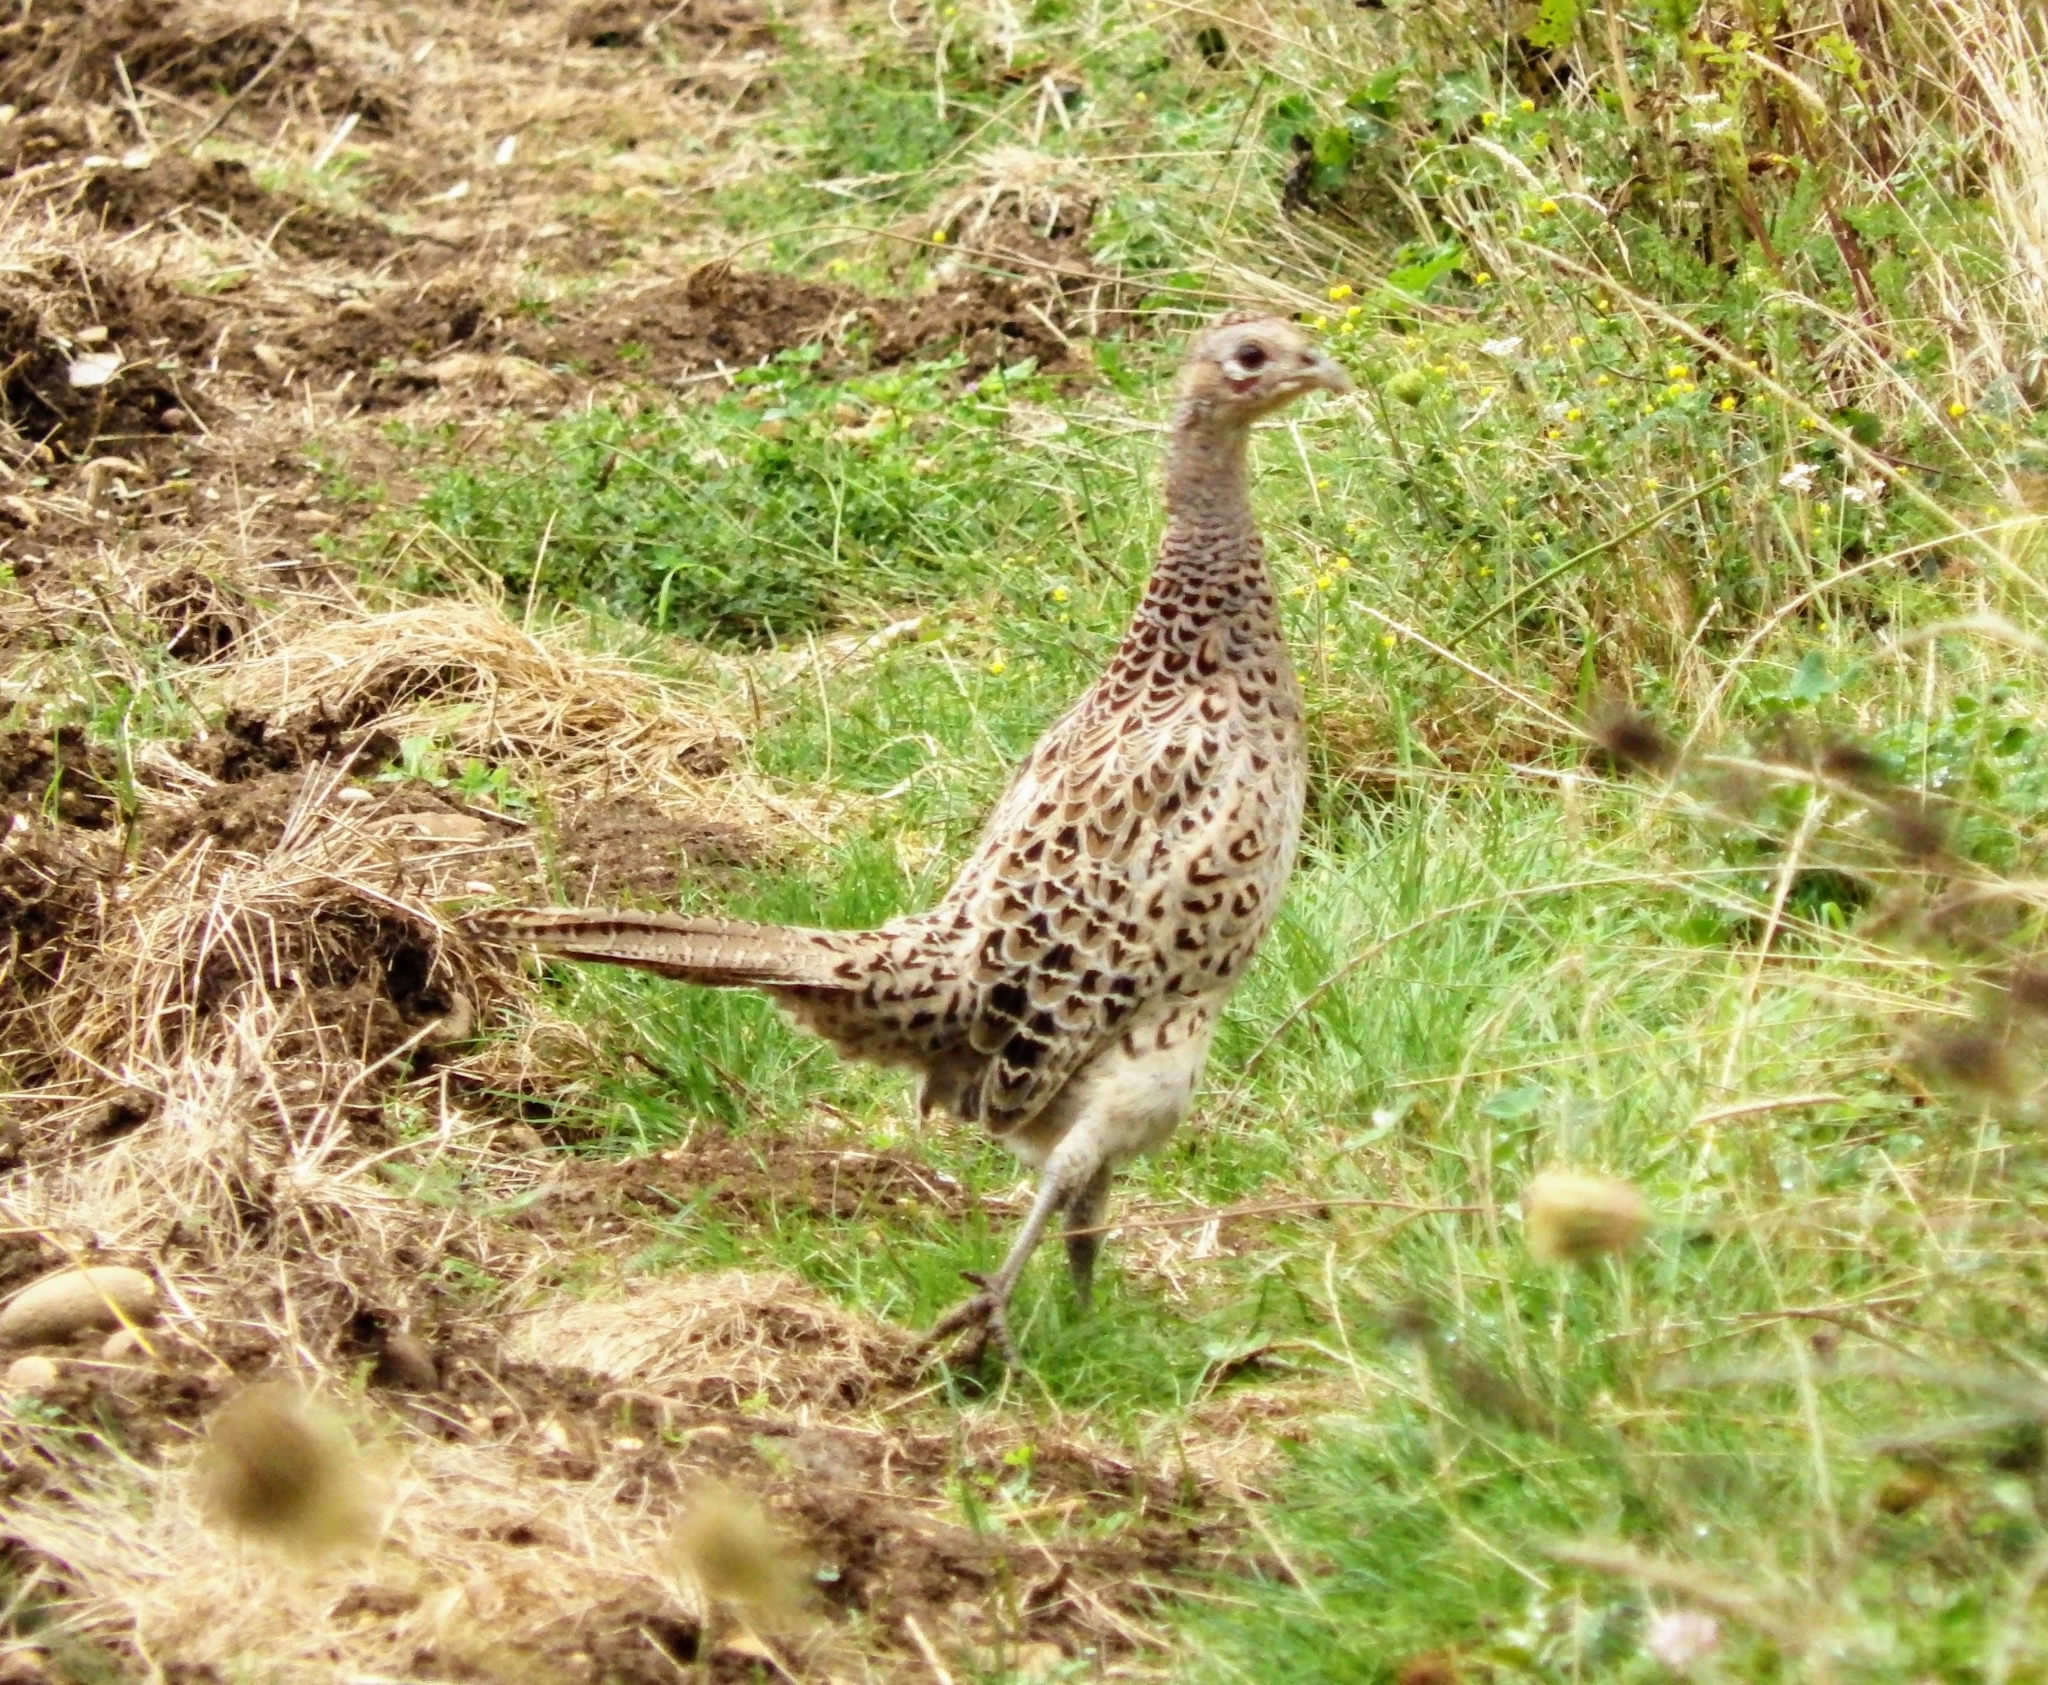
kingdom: Animalia
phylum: Chordata
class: Aves
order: Galliformes
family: Phasianidae
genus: Phasianus
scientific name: Phasianus colchicus
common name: Common pheasant
